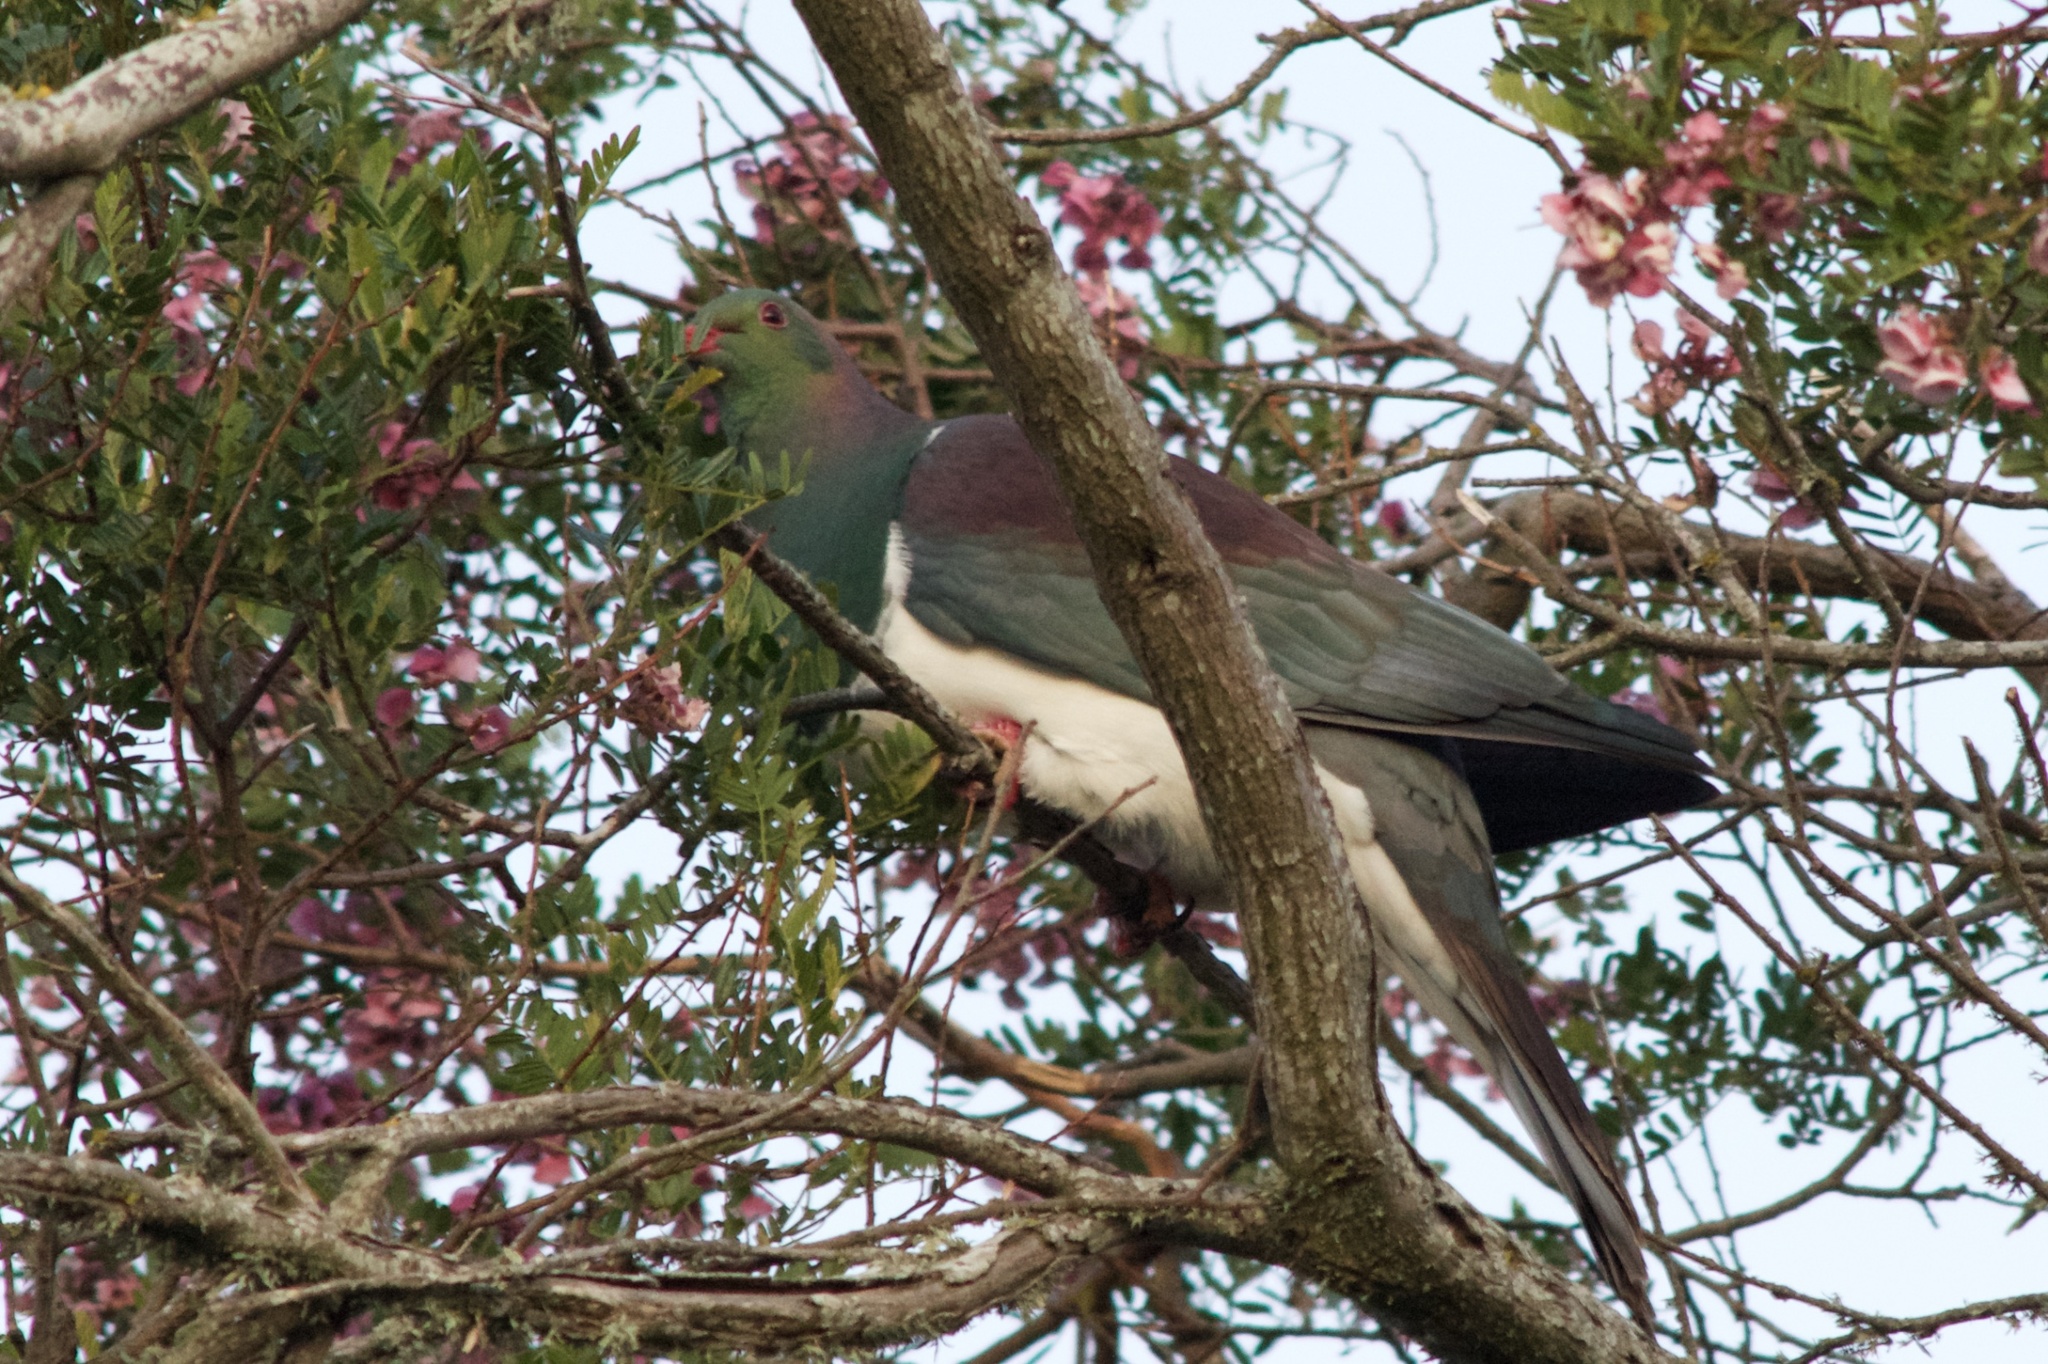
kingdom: Animalia
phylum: Chordata
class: Aves
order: Columbiformes
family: Columbidae
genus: Hemiphaga
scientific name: Hemiphaga novaeseelandiae
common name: New zealand pigeon
